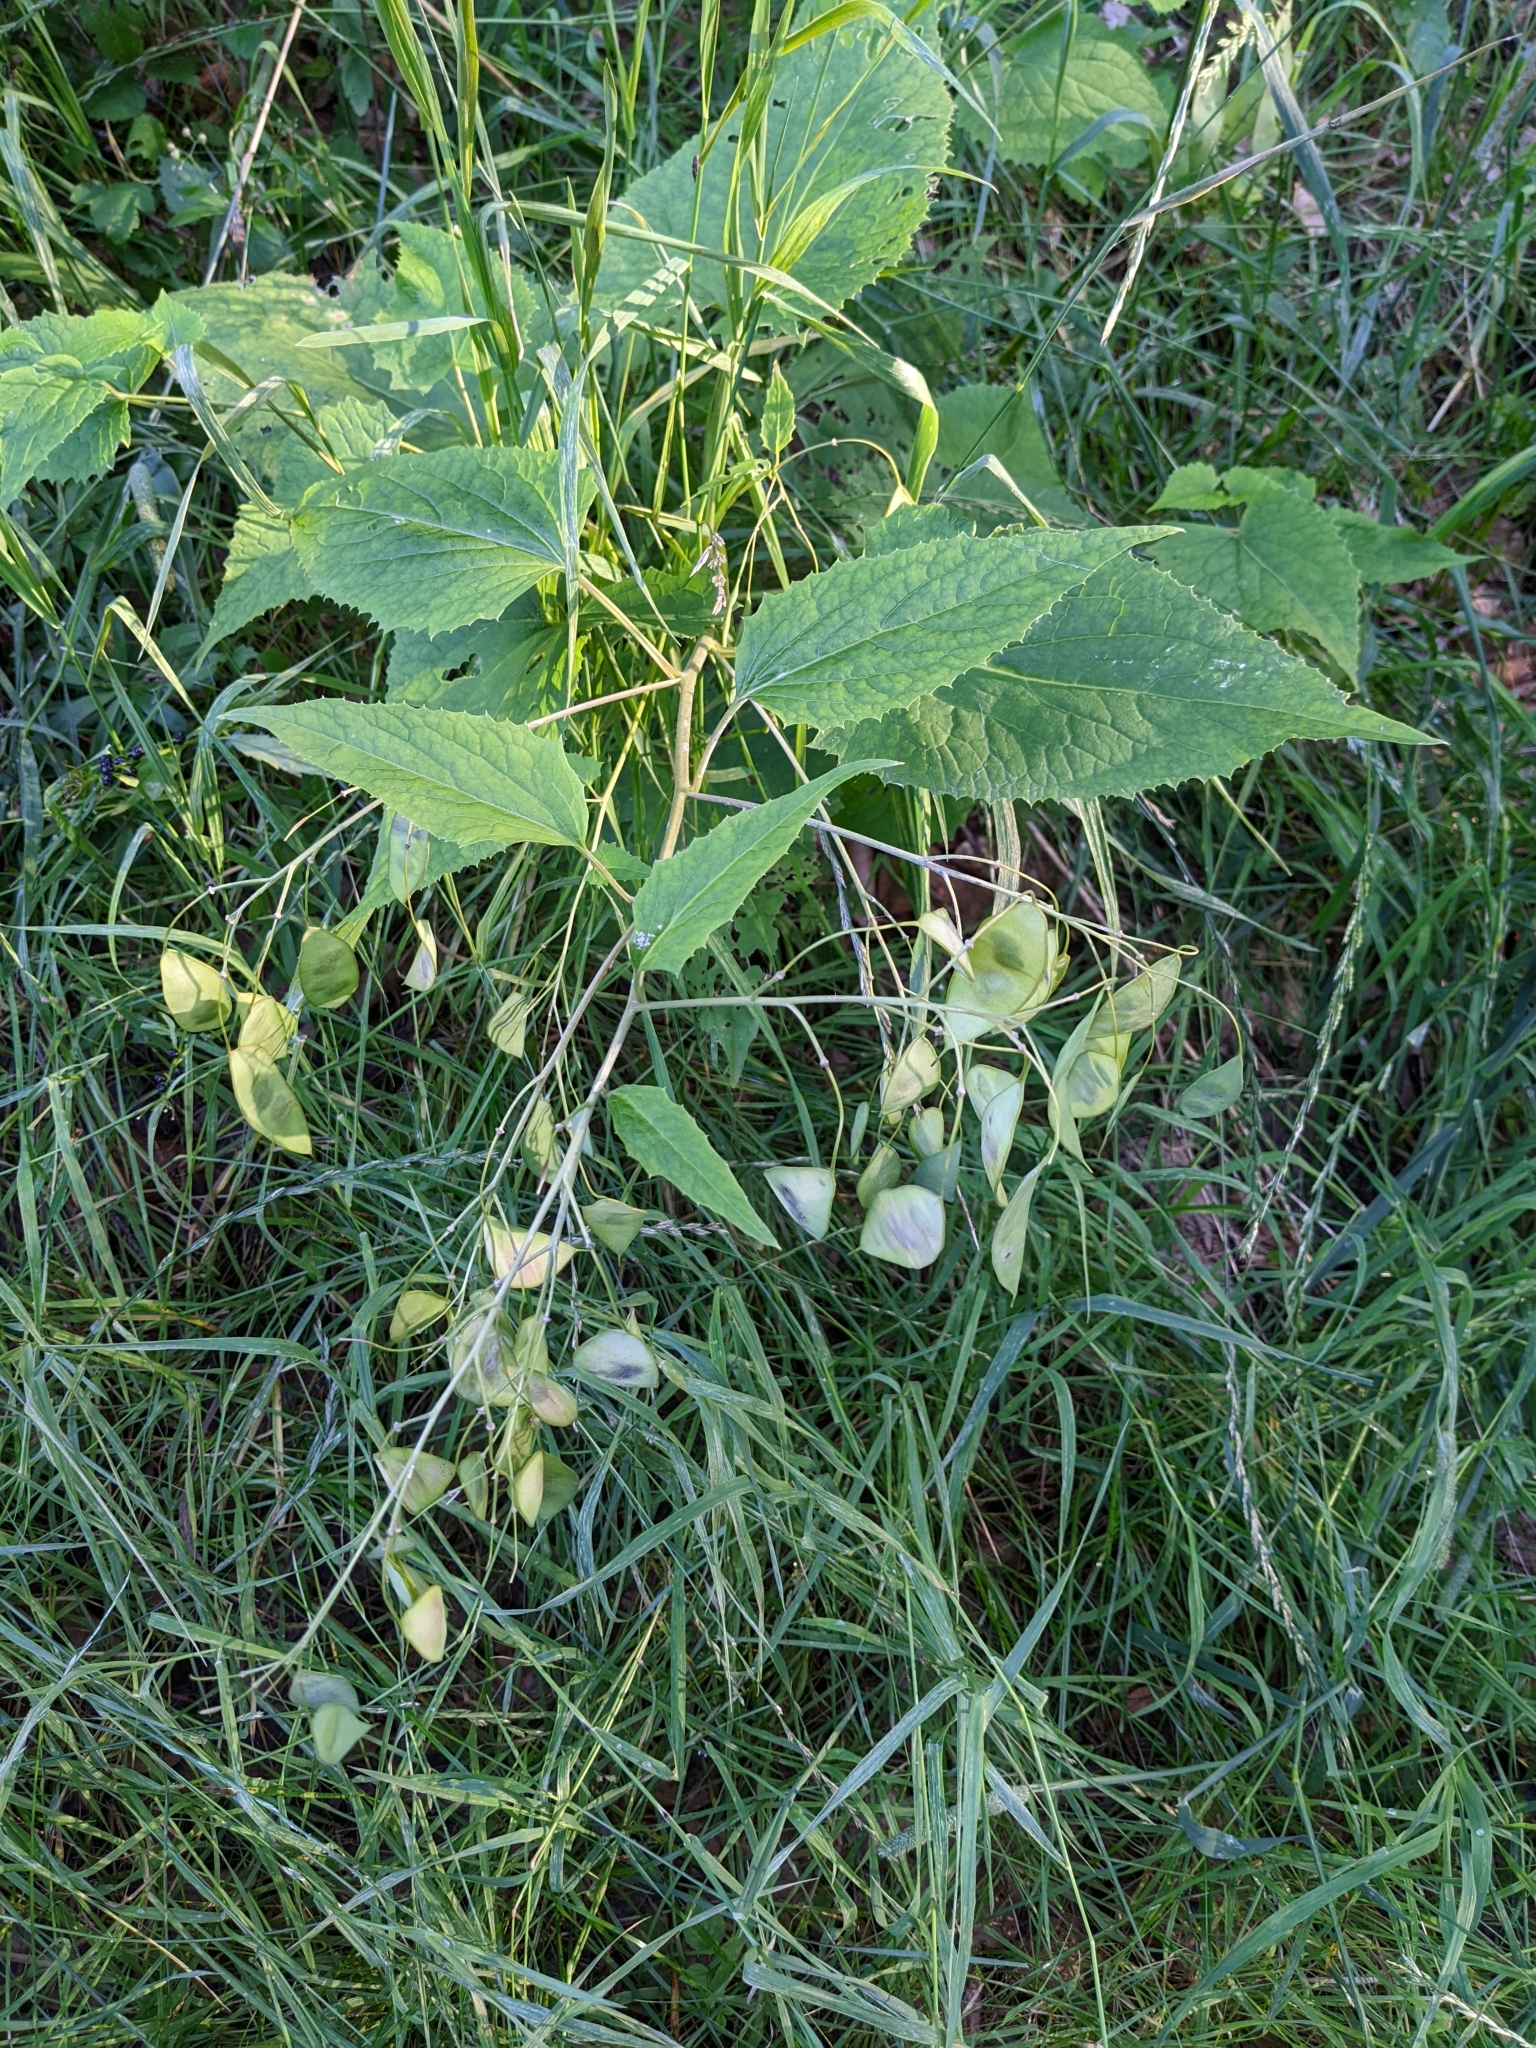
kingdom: Plantae
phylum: Tracheophyta
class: Magnoliopsida
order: Brassicales
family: Brassicaceae
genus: Lunaria
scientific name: Lunaria rediviva
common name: Perennial honesty
